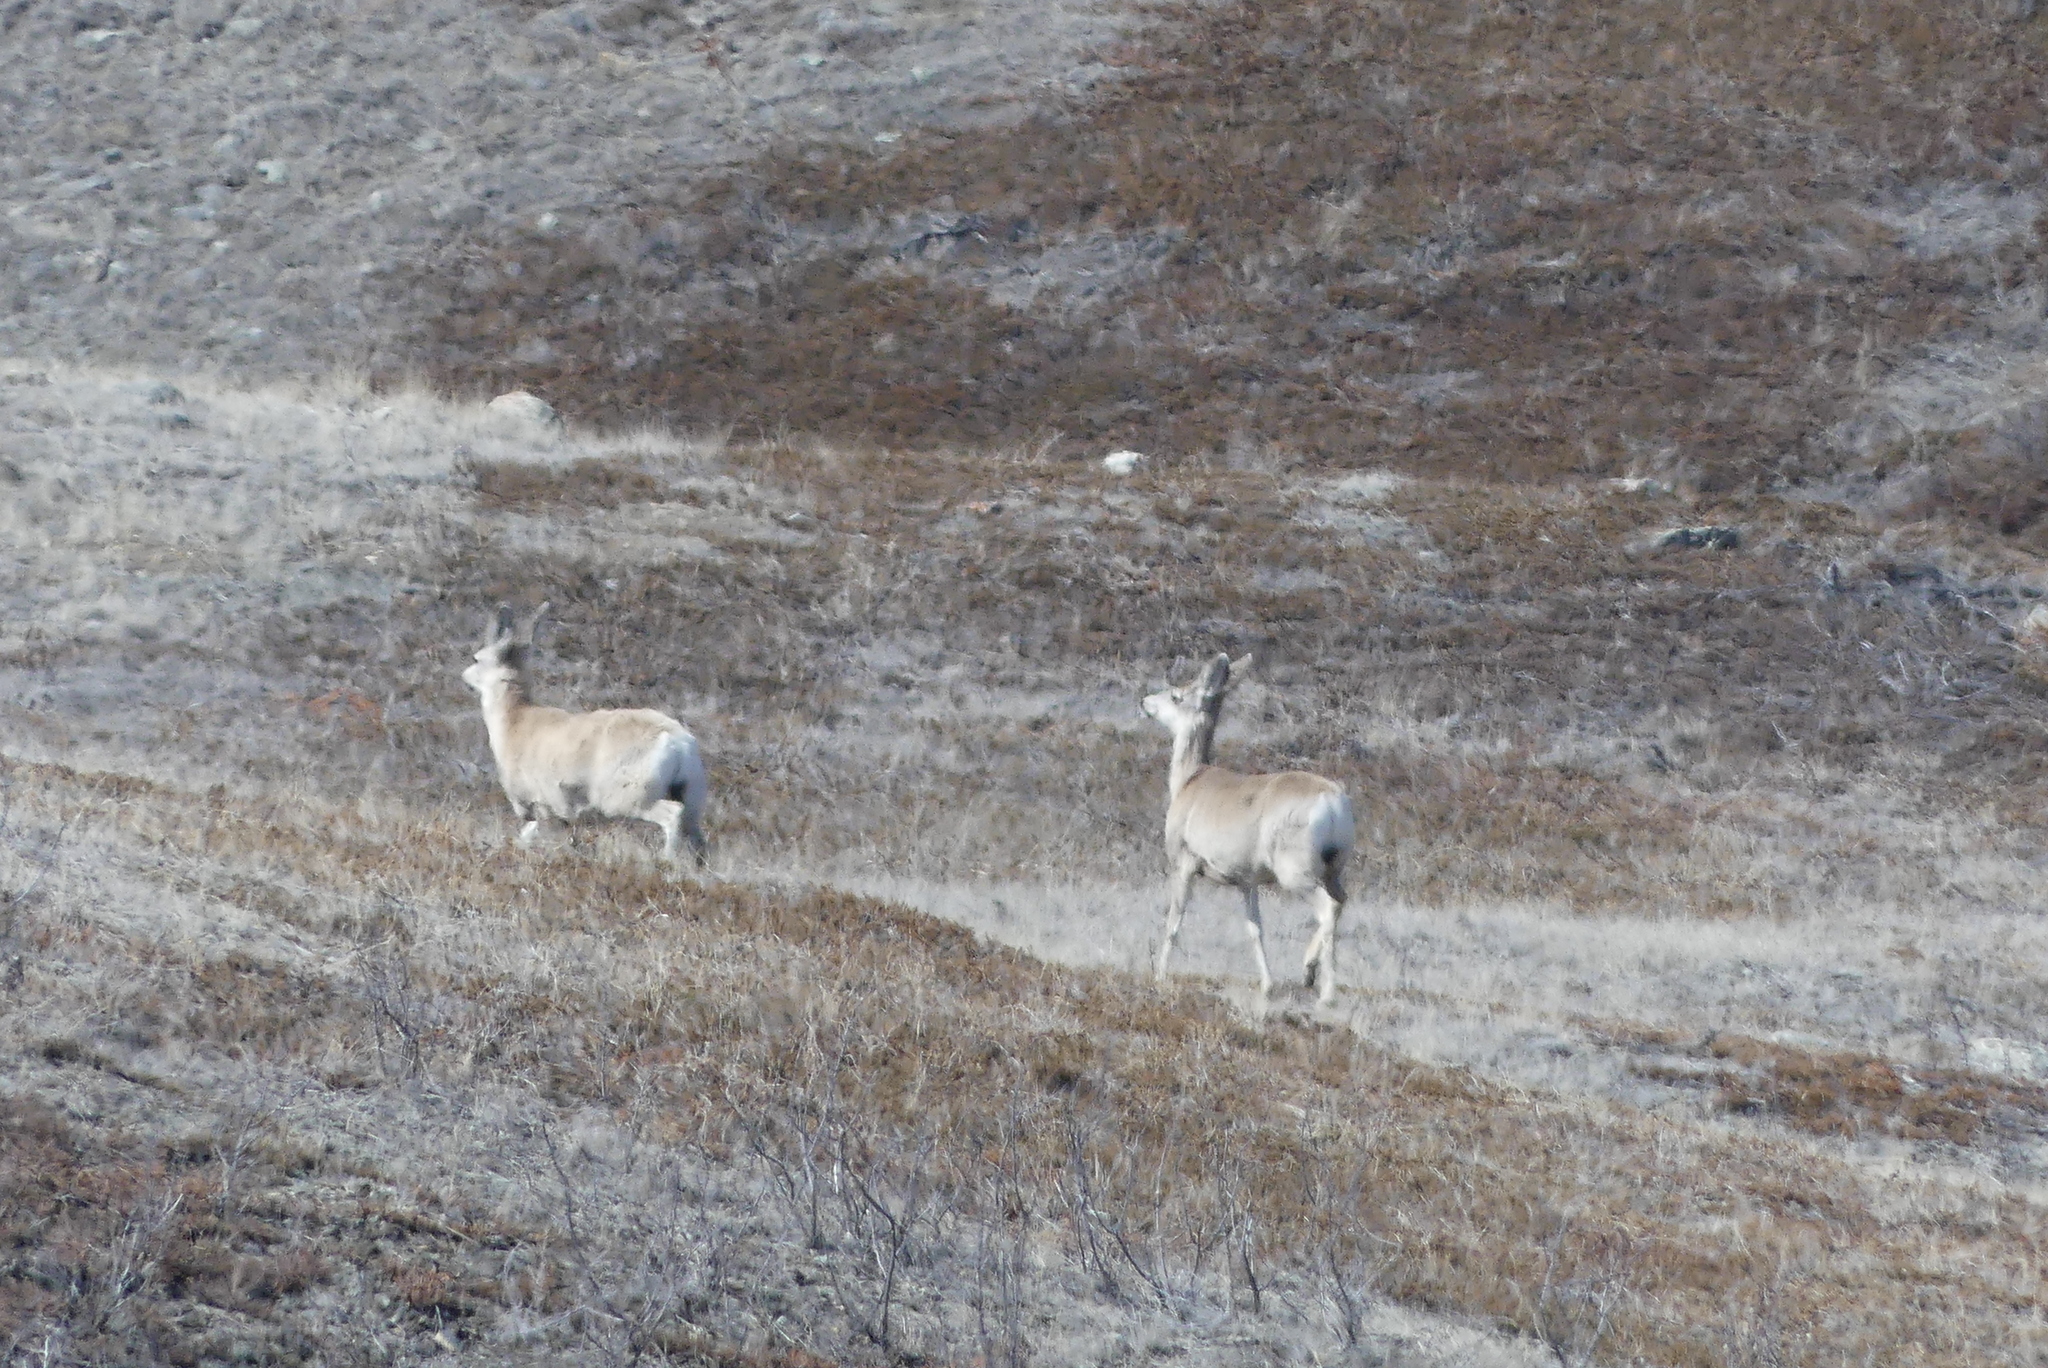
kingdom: Animalia
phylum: Chordata
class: Mammalia
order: Artiodactyla
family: Cervidae
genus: Odocoileus
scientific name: Odocoileus hemionus
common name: Mule deer
